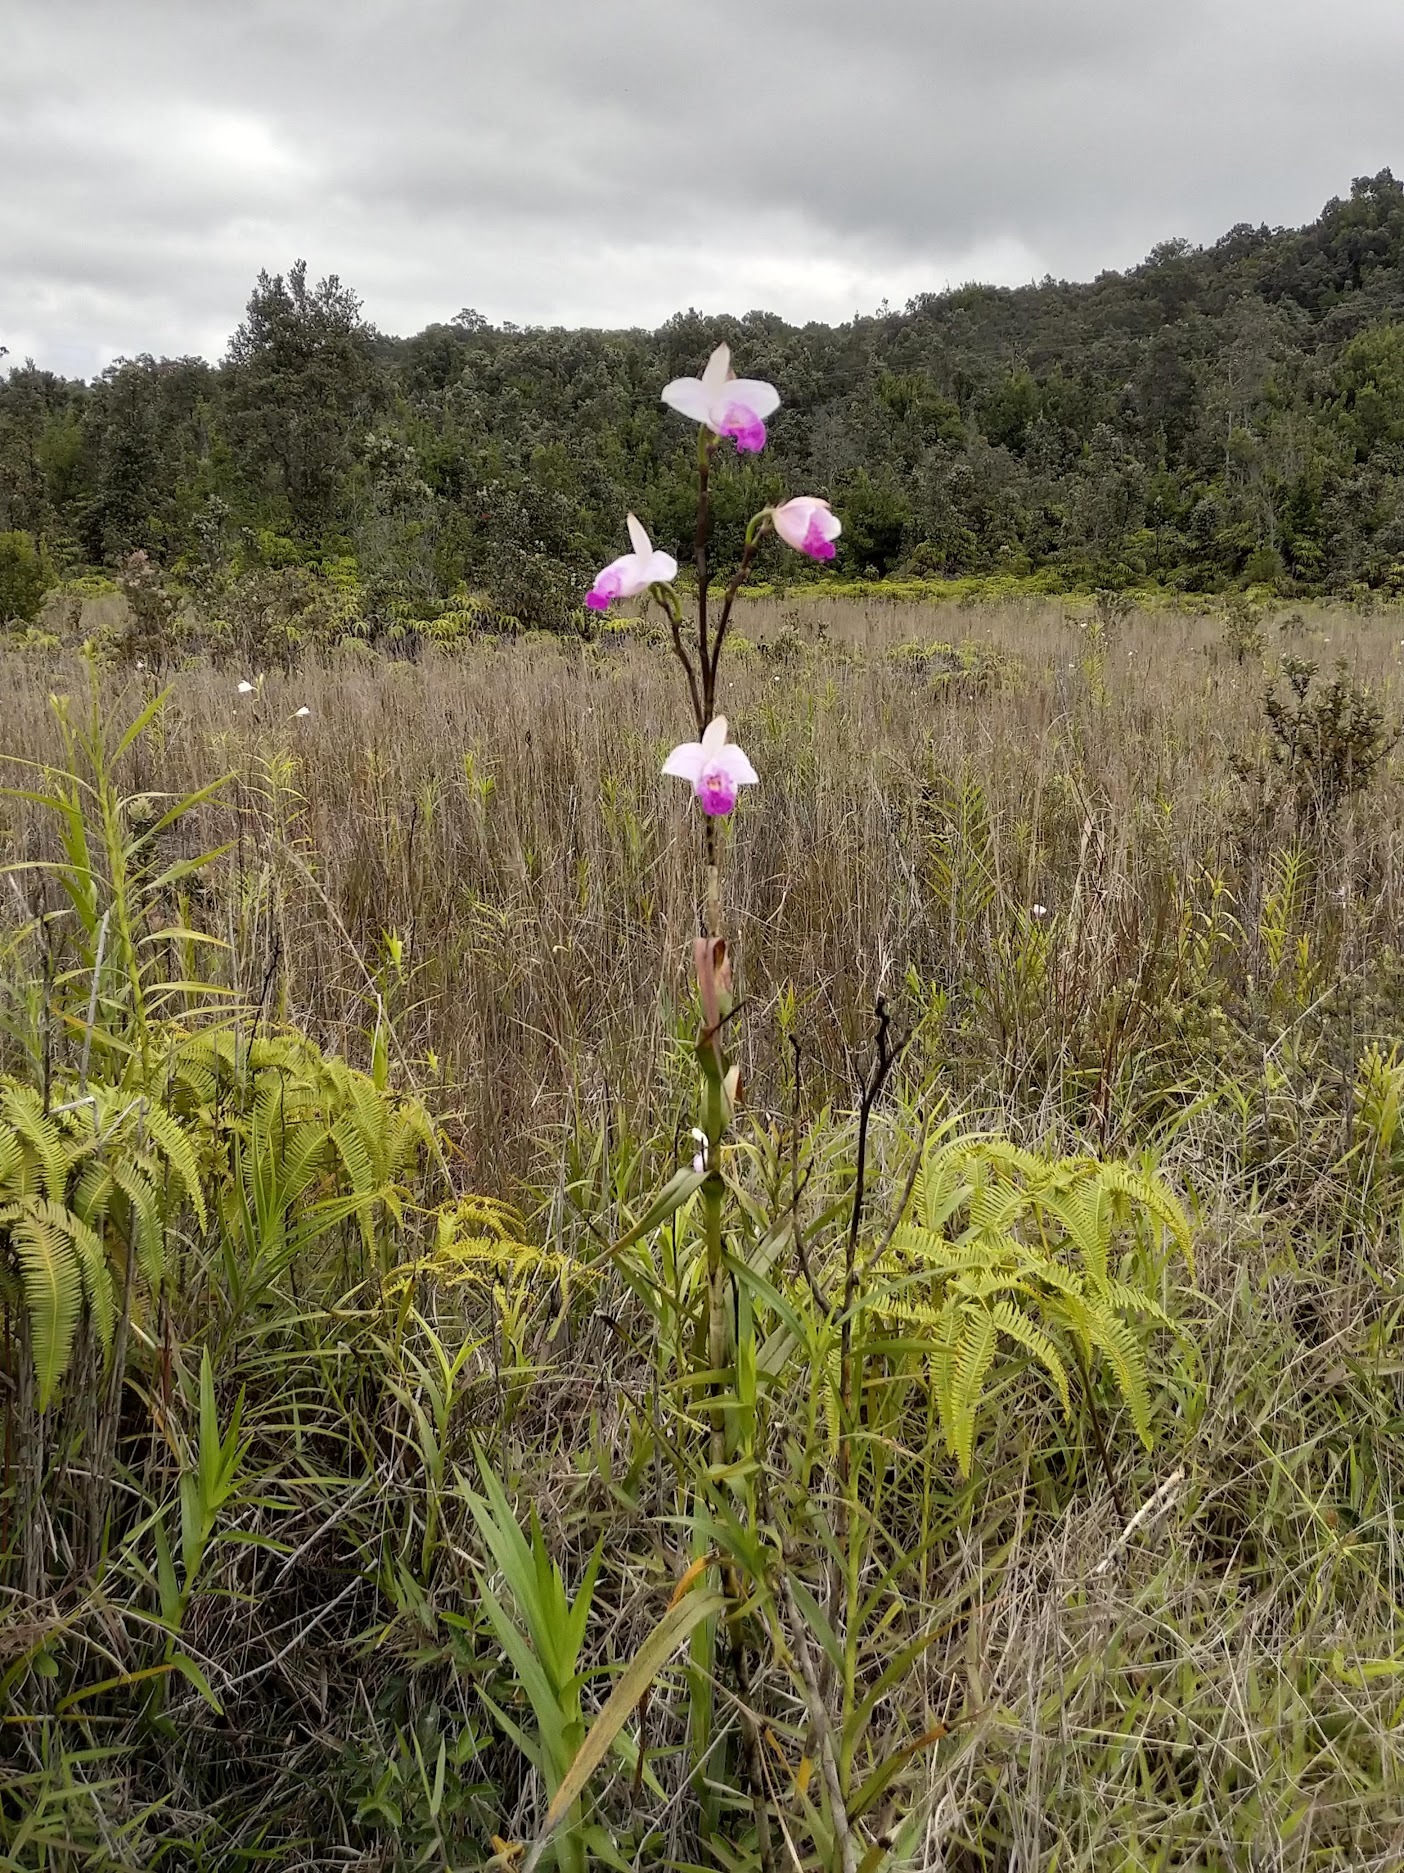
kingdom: Plantae
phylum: Tracheophyta
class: Liliopsida
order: Asparagales
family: Orchidaceae
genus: Arundina
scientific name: Arundina graminifolia
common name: Bamboo orchid
